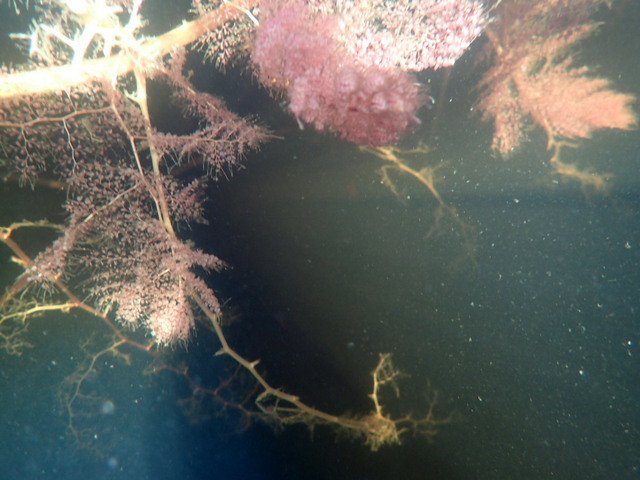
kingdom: Plantae
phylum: Tracheophyta
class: Magnoliopsida
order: Lamiales
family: Lentibulariaceae
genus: Utricularia
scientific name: Utricularia foliosa
